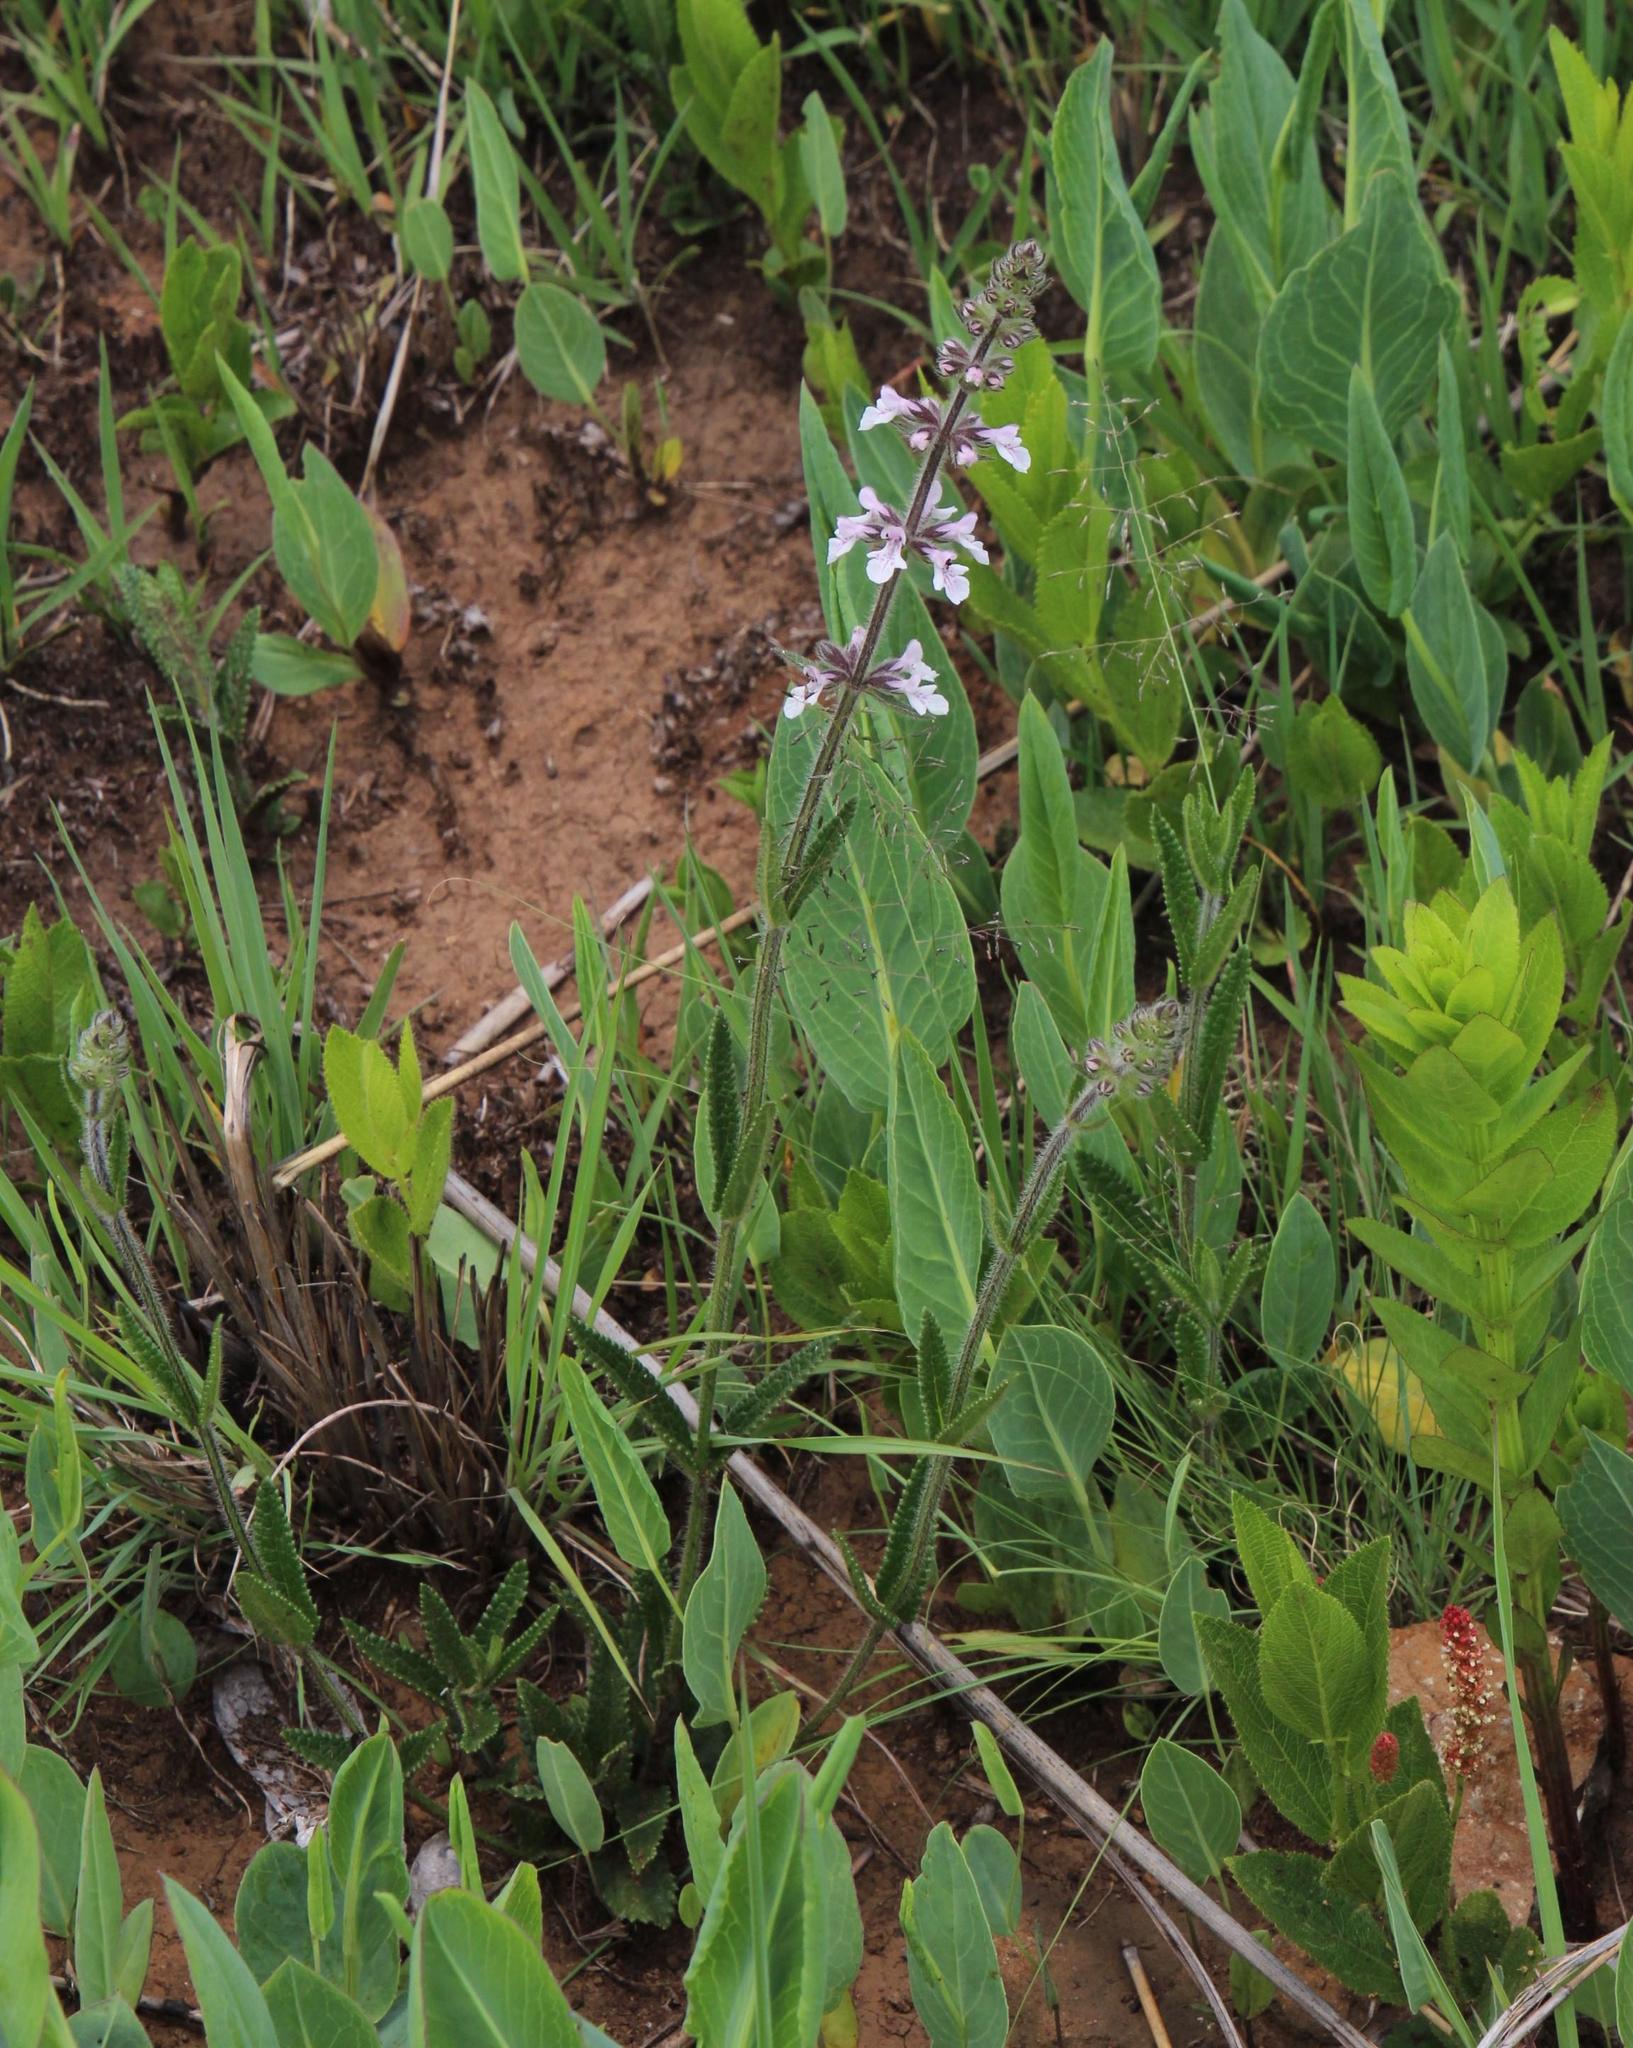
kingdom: Plantae
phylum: Tracheophyta
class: Magnoliopsida
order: Lamiales
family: Lamiaceae
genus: Stachys
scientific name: Stachys nigricans
